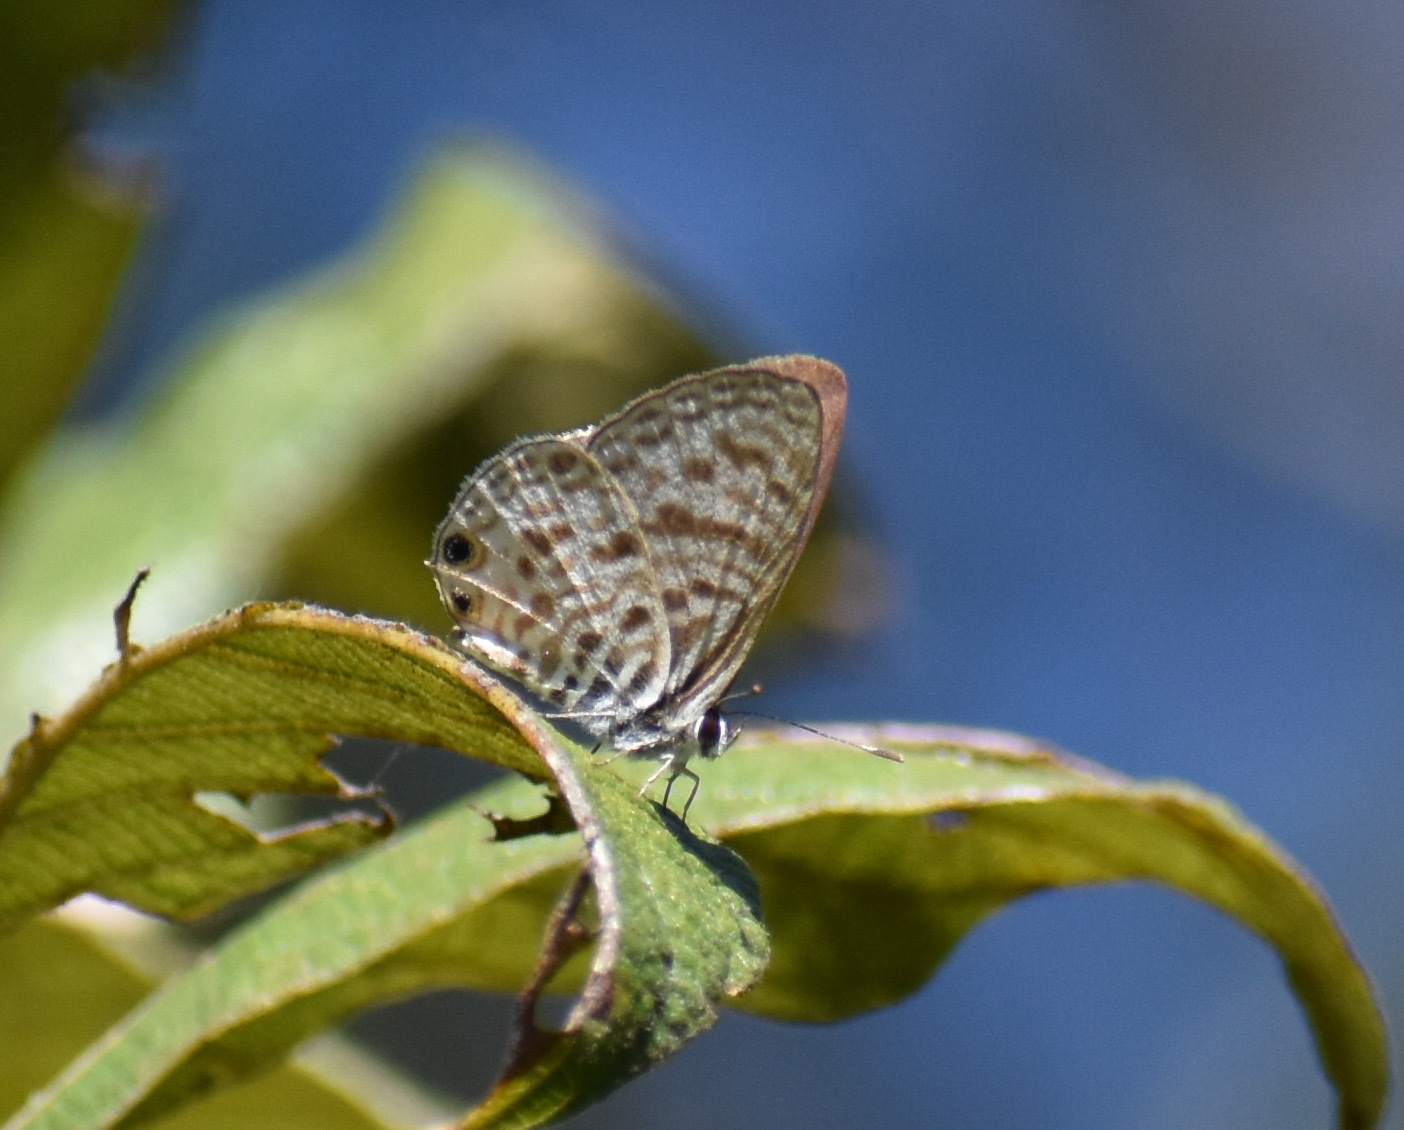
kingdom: Animalia
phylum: Arthropoda
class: Insecta
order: Lepidoptera
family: Lycaenidae
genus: Leptotes
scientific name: Leptotes
